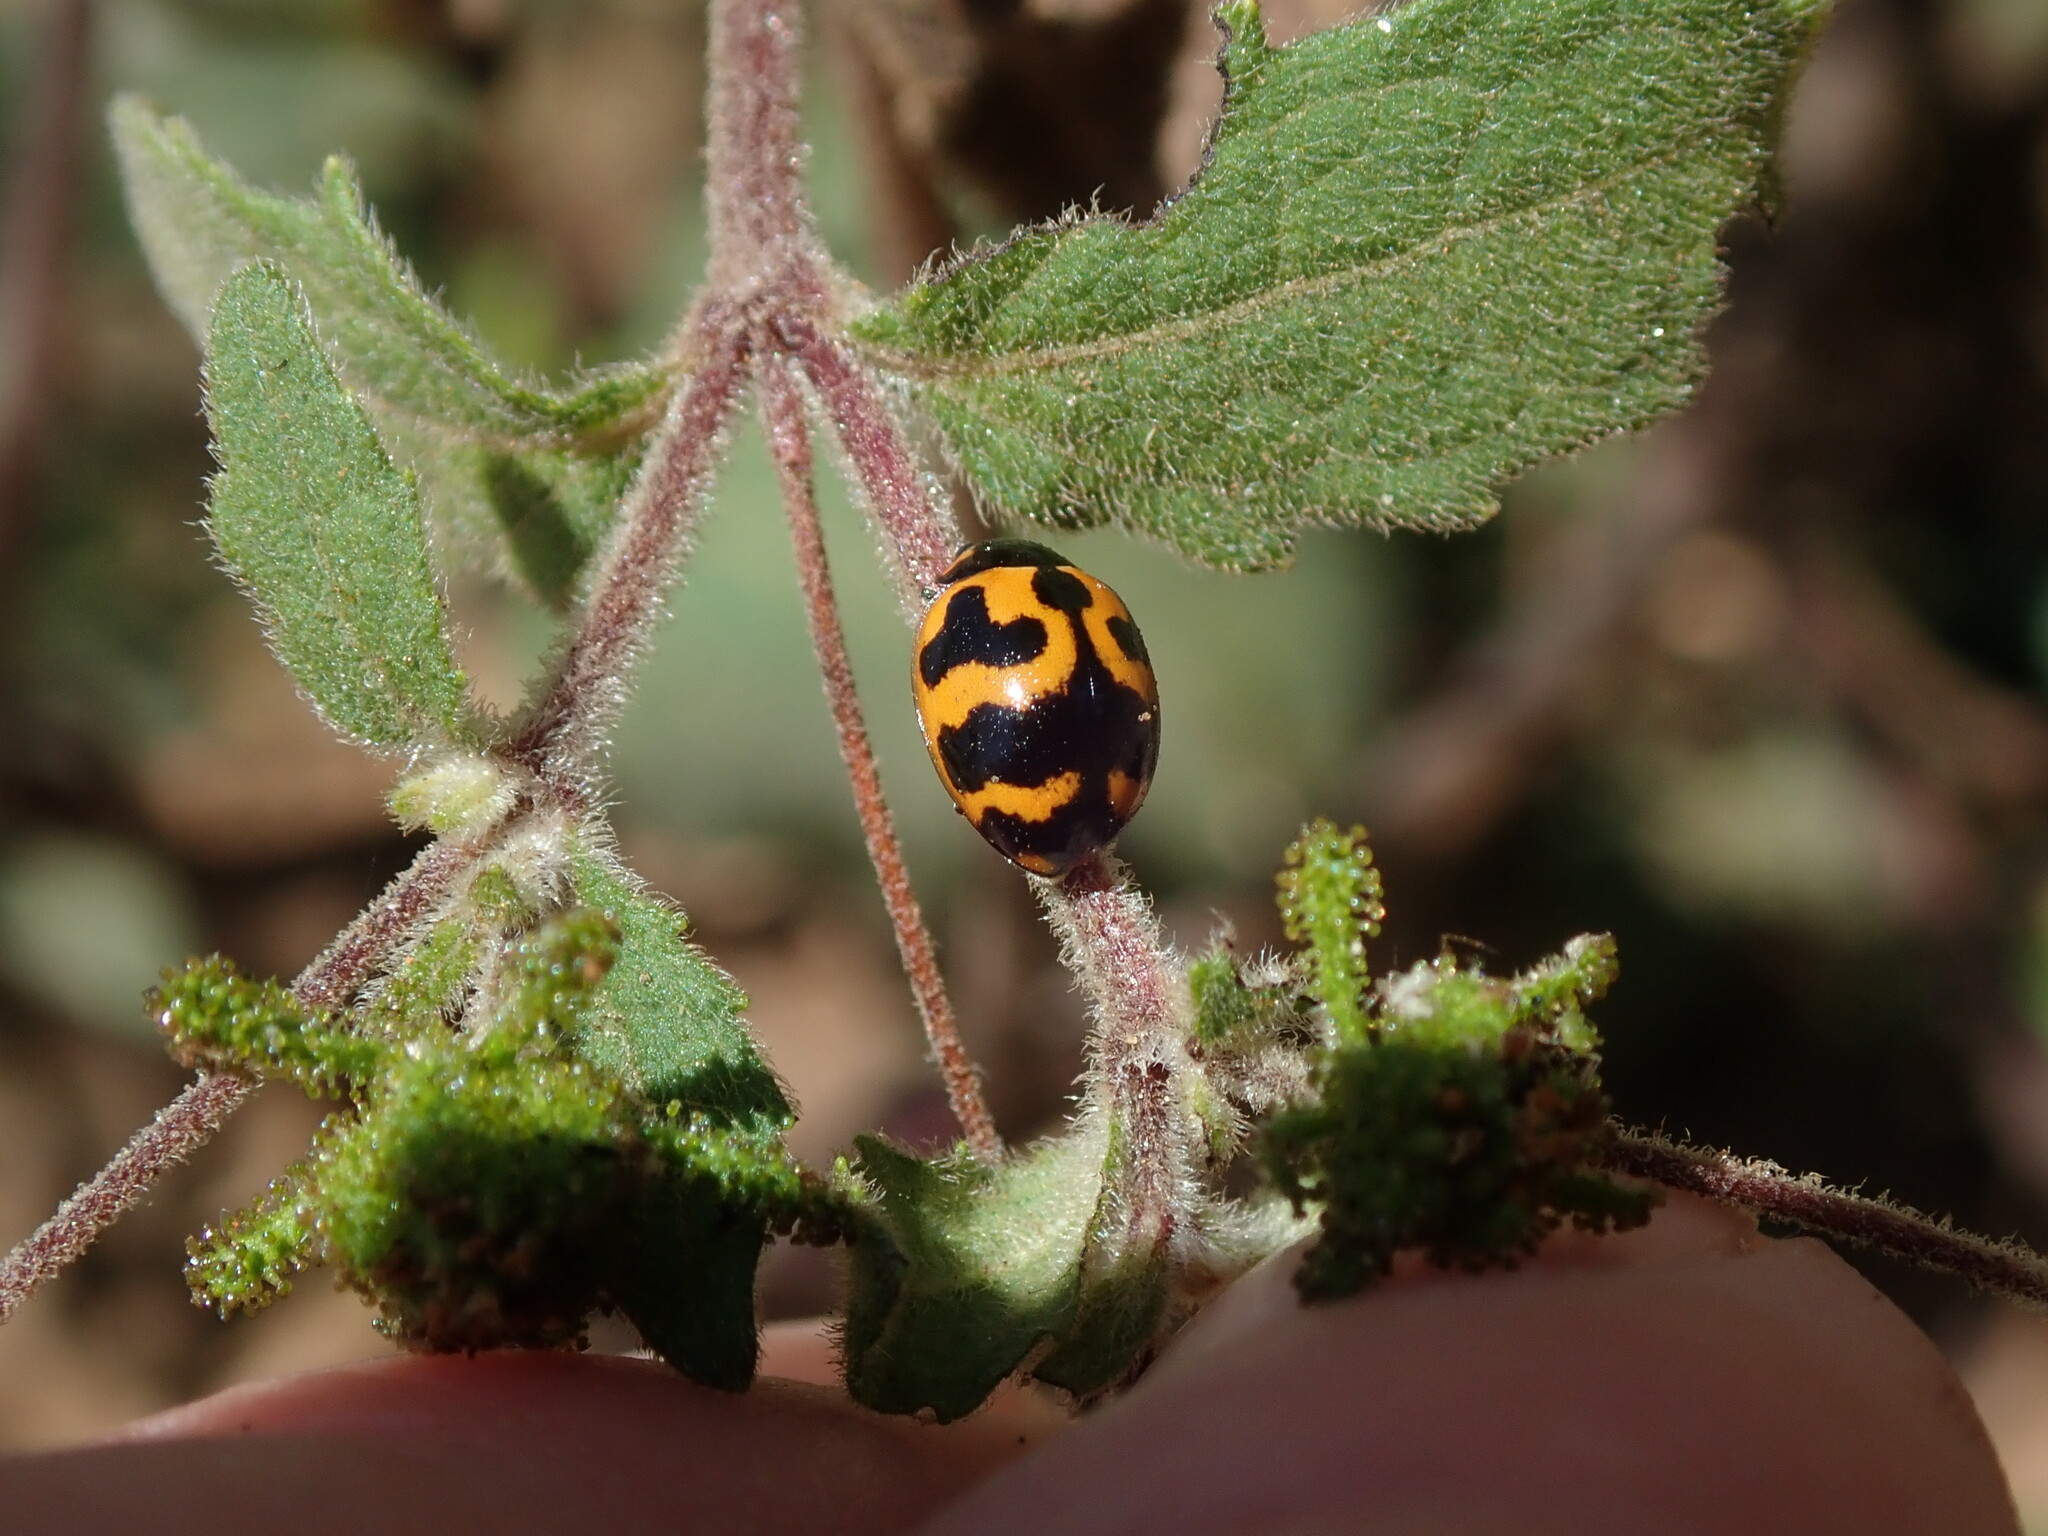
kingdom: Animalia
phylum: Arthropoda
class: Insecta
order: Coleoptera
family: Coccinellidae
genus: Coccinella
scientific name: Coccinella transversalis
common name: Transverse lady beetle
